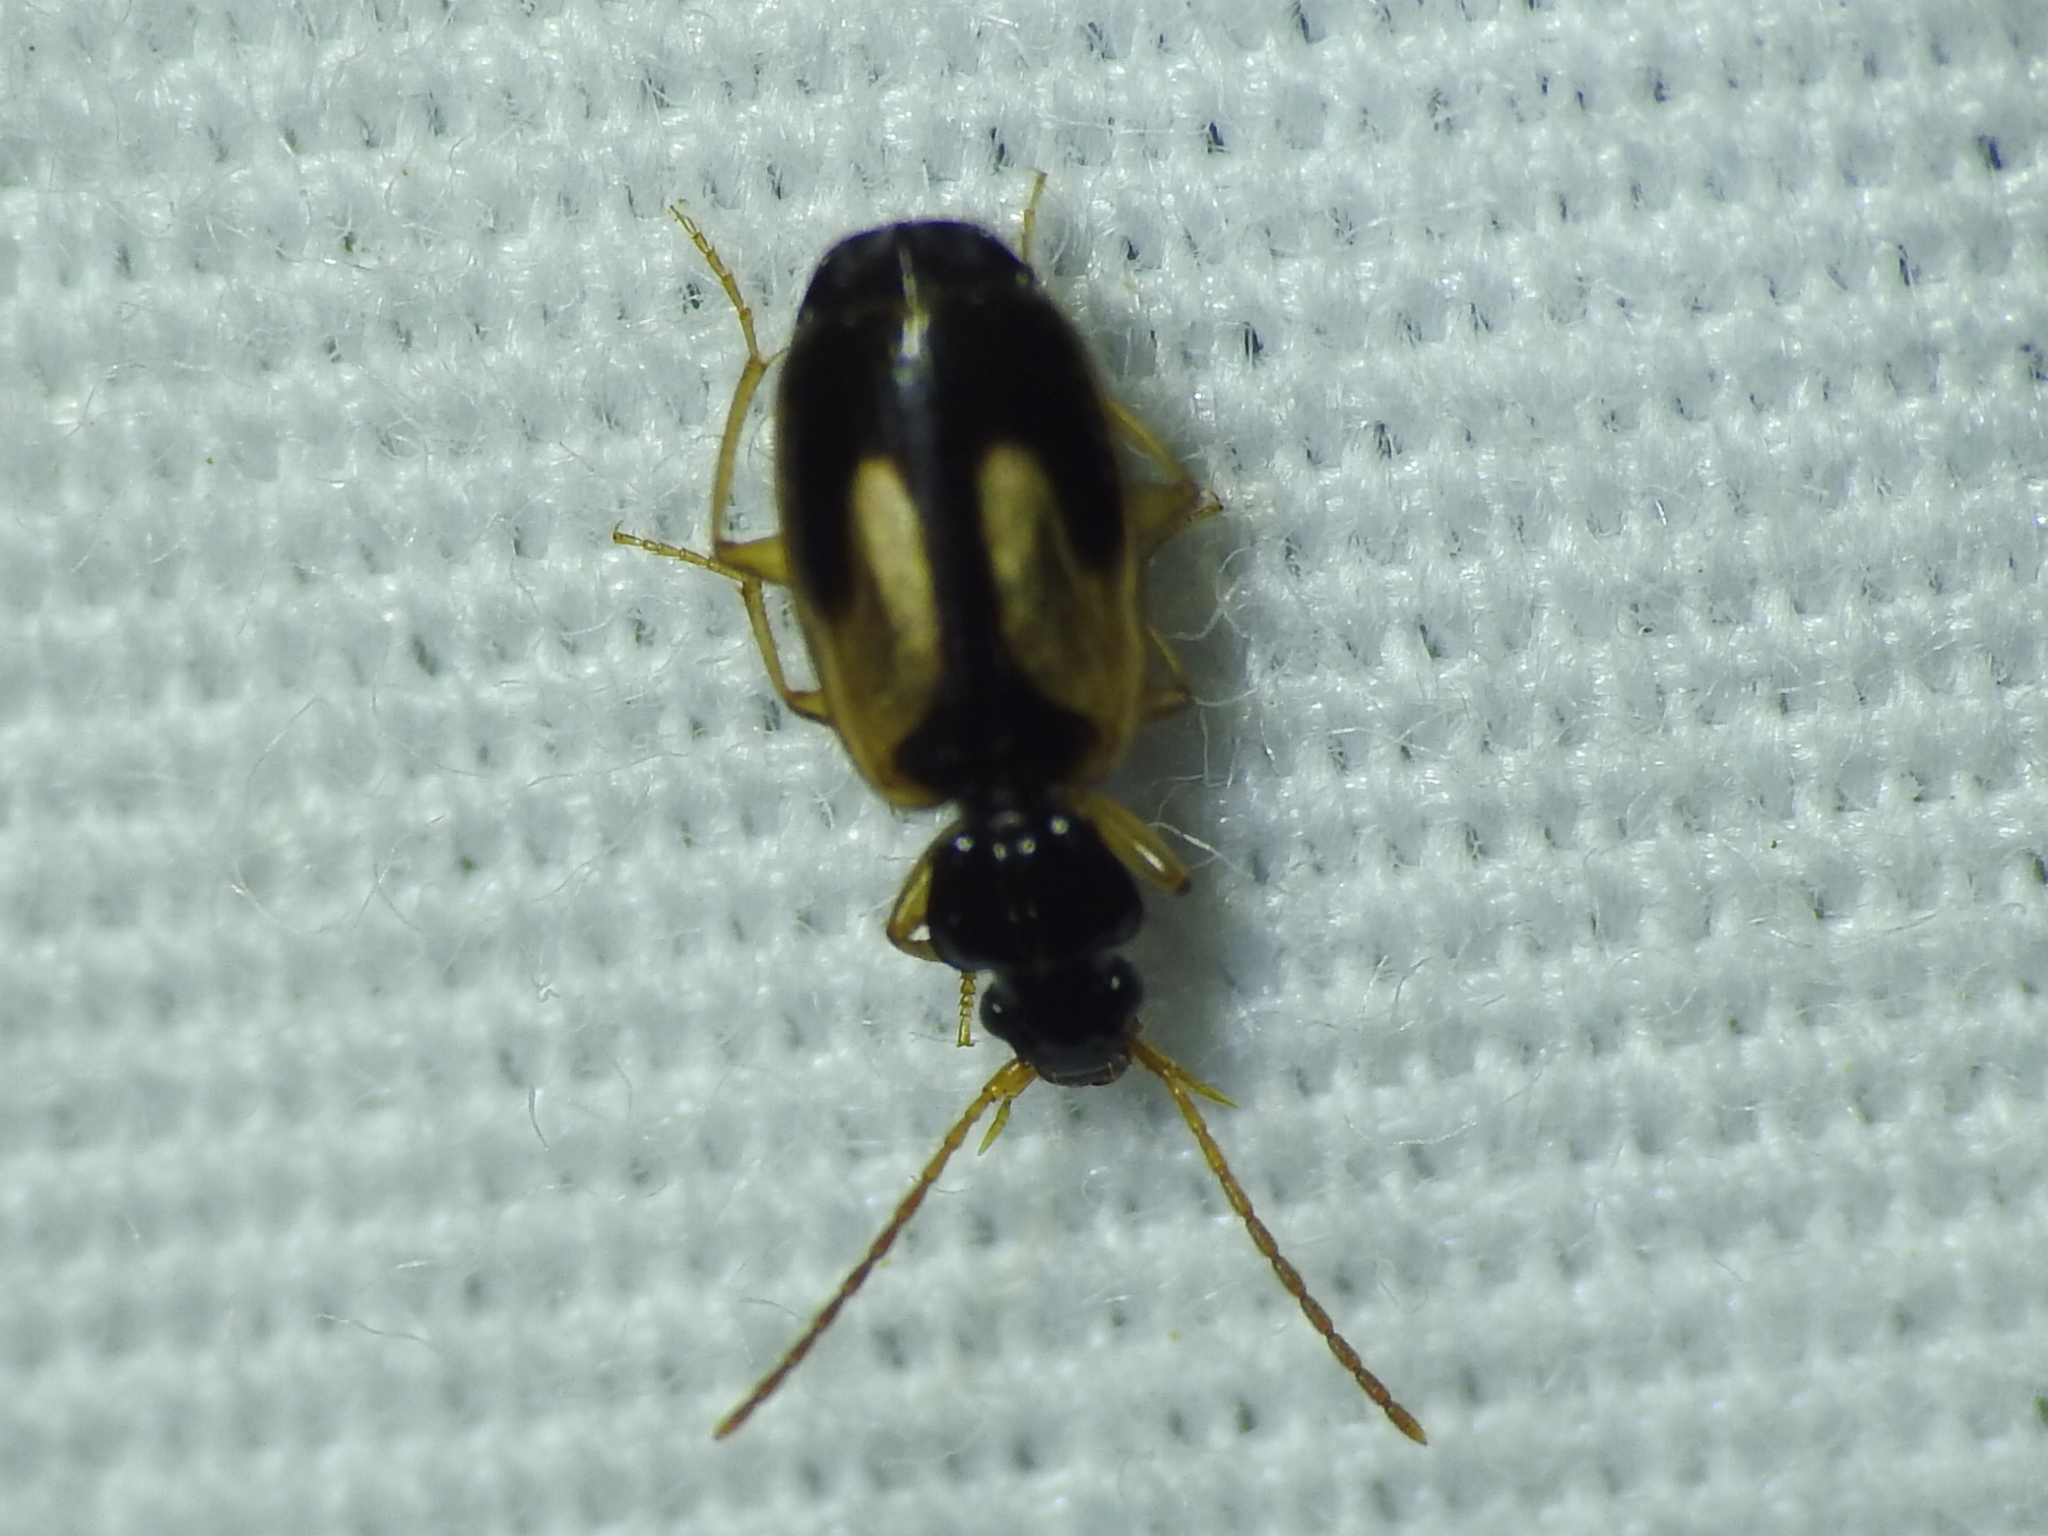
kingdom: Animalia
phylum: Arthropoda
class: Insecta
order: Coleoptera
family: Carabidae
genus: Axinopalpus
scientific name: Axinopalpus biplagiatus
